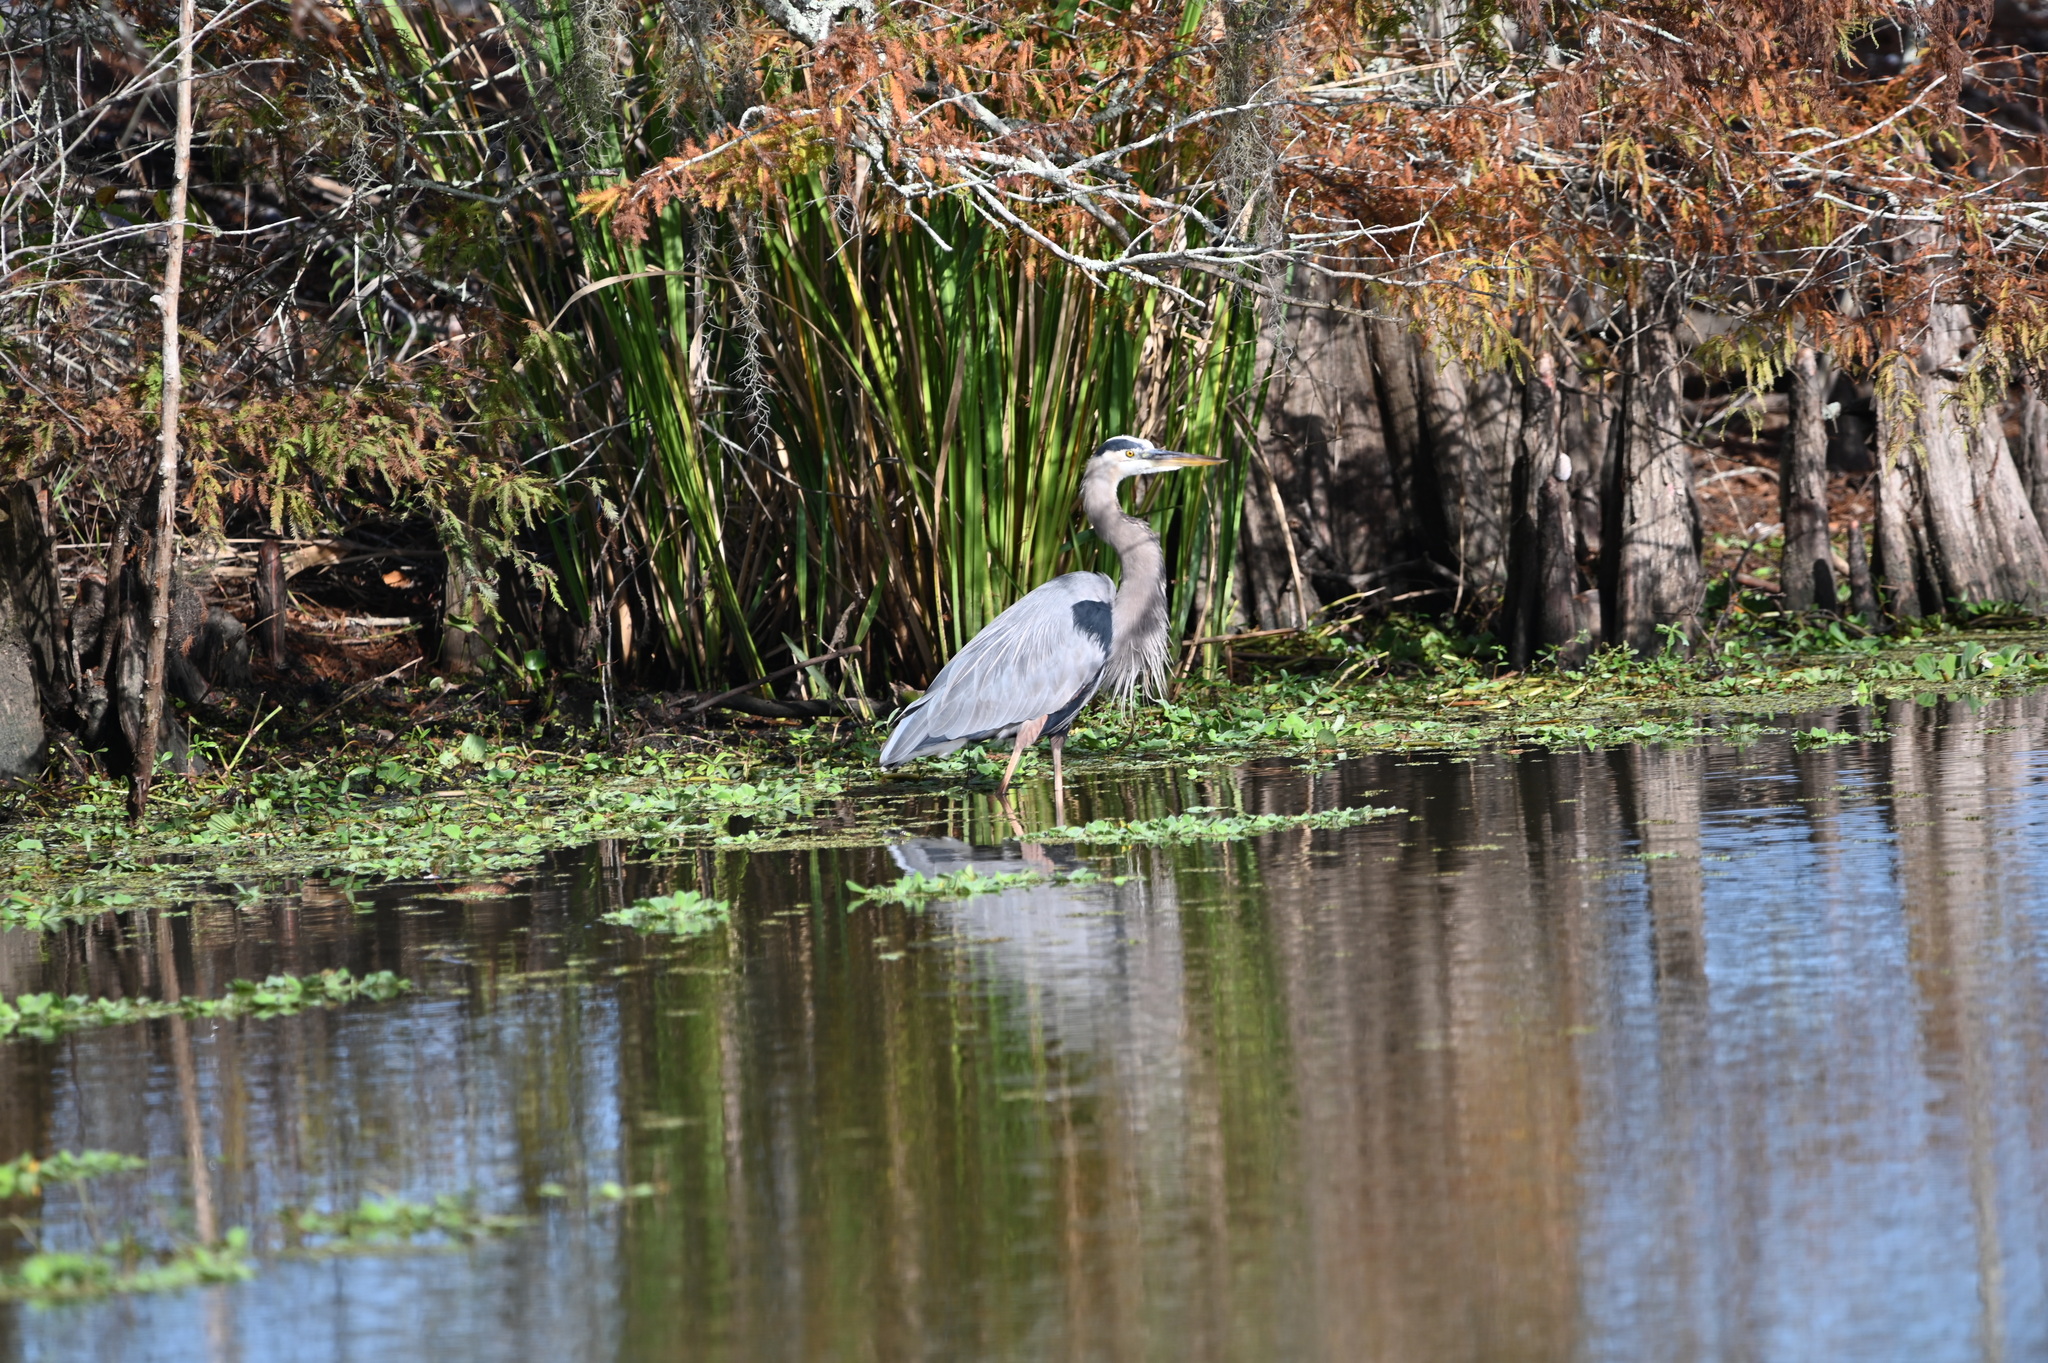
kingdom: Animalia
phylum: Chordata
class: Aves
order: Pelecaniformes
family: Ardeidae
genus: Ardea
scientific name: Ardea herodias
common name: Great blue heron
